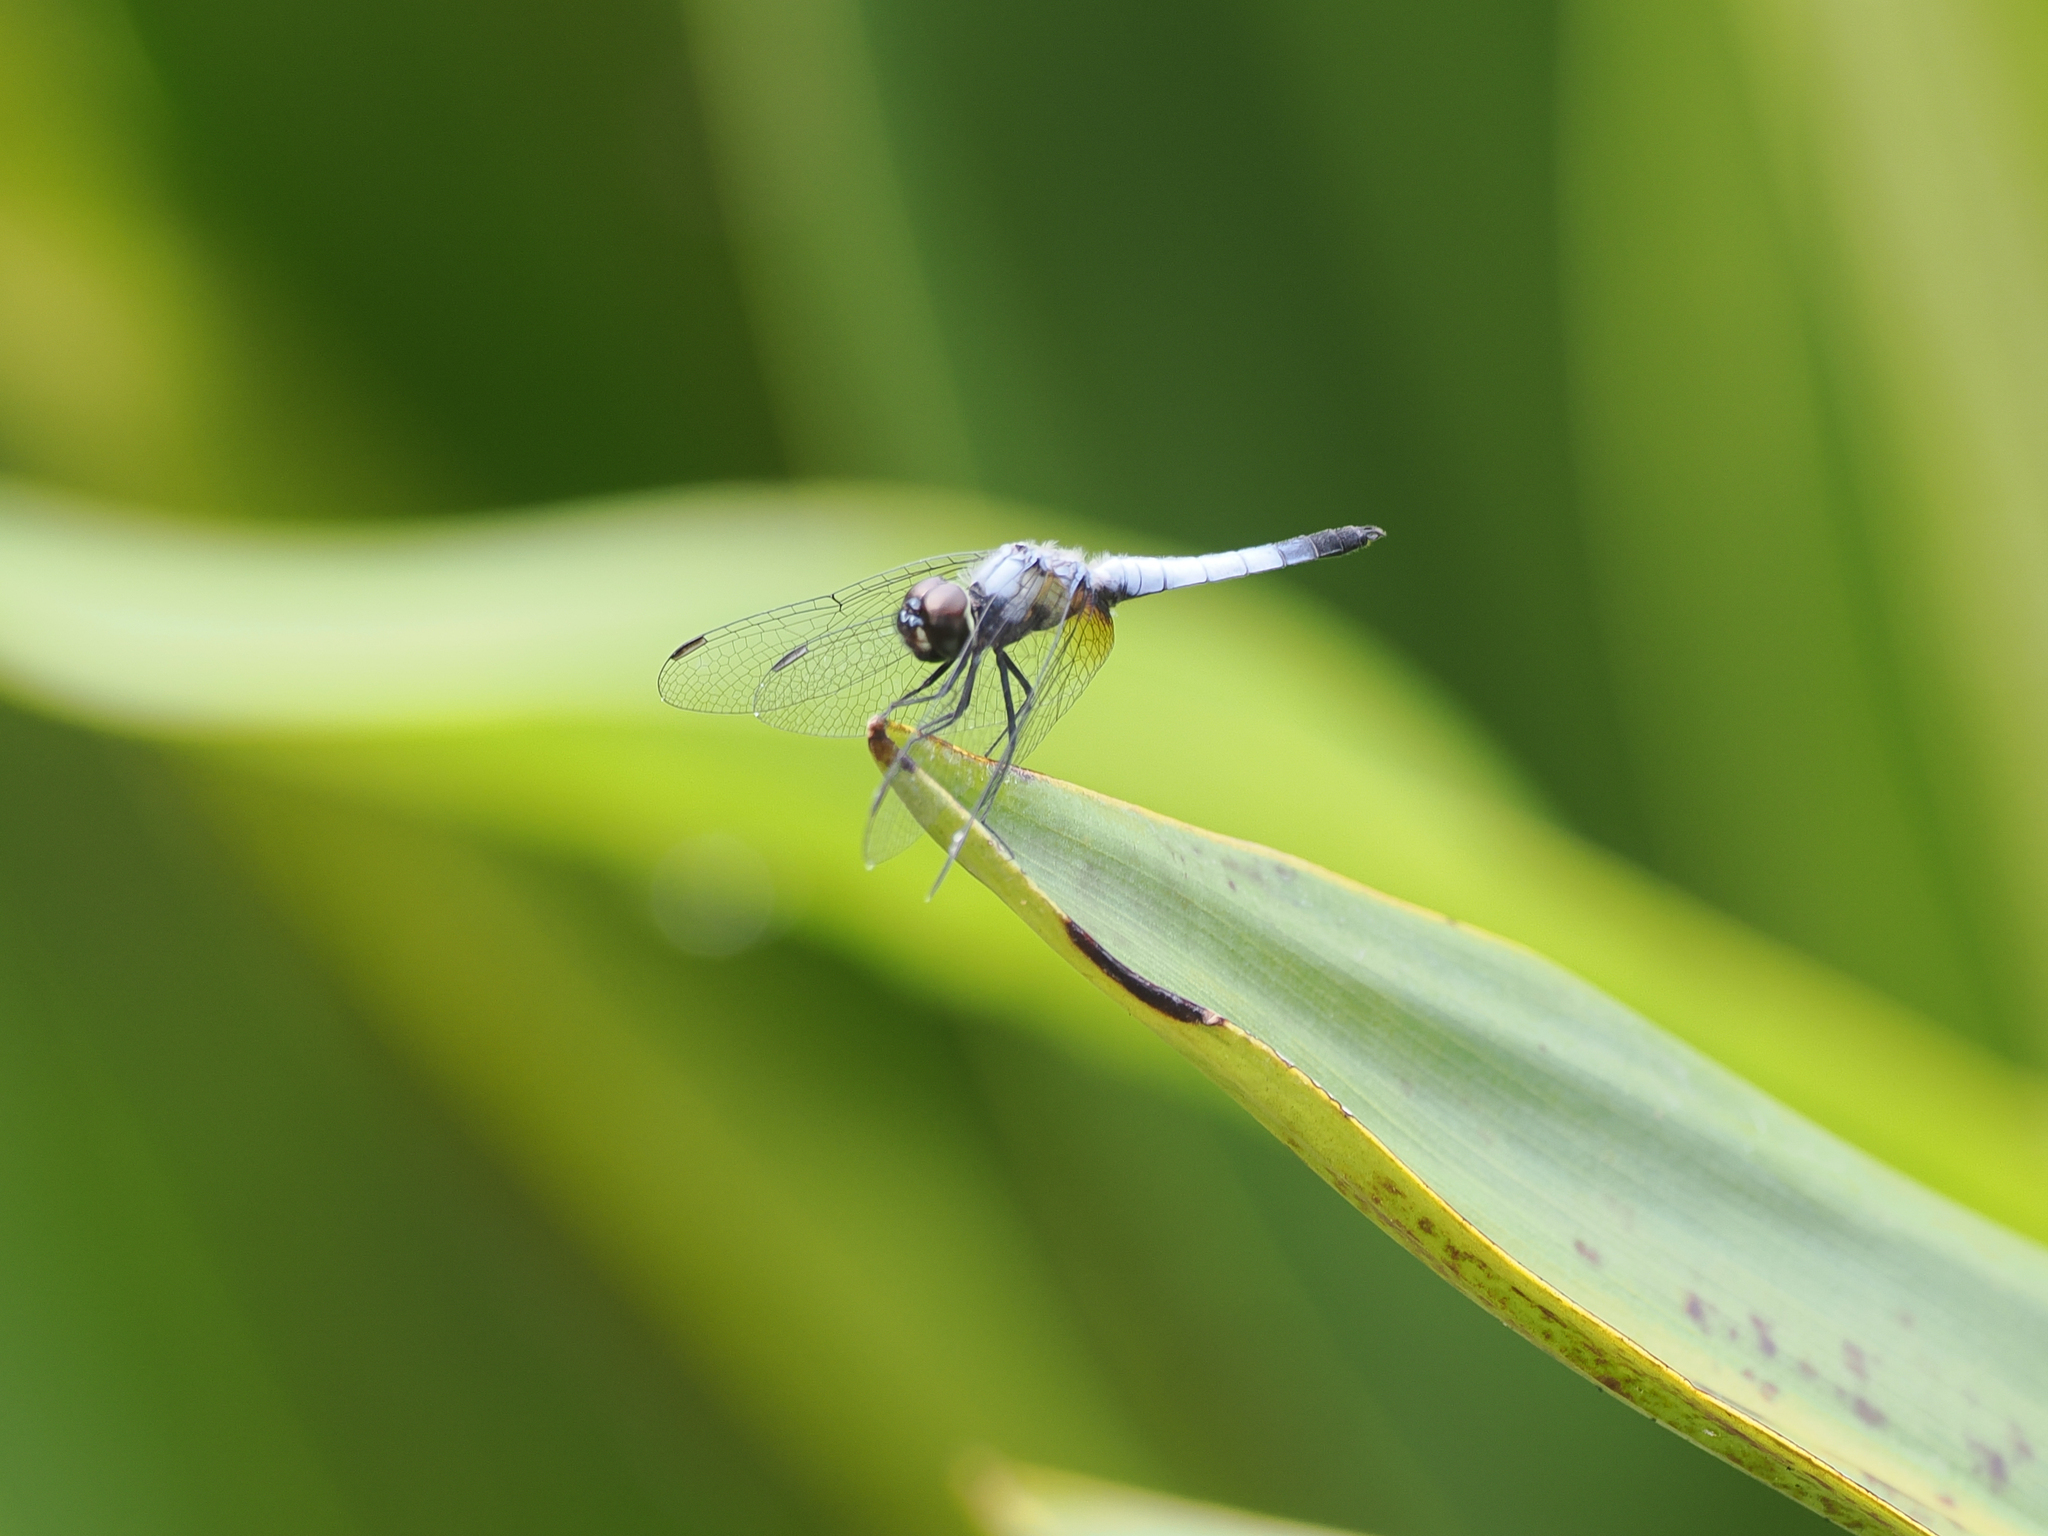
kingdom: Animalia
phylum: Arthropoda
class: Insecta
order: Odonata
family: Libellulidae
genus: Aethriamanta
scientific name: Aethriamanta gracilis
